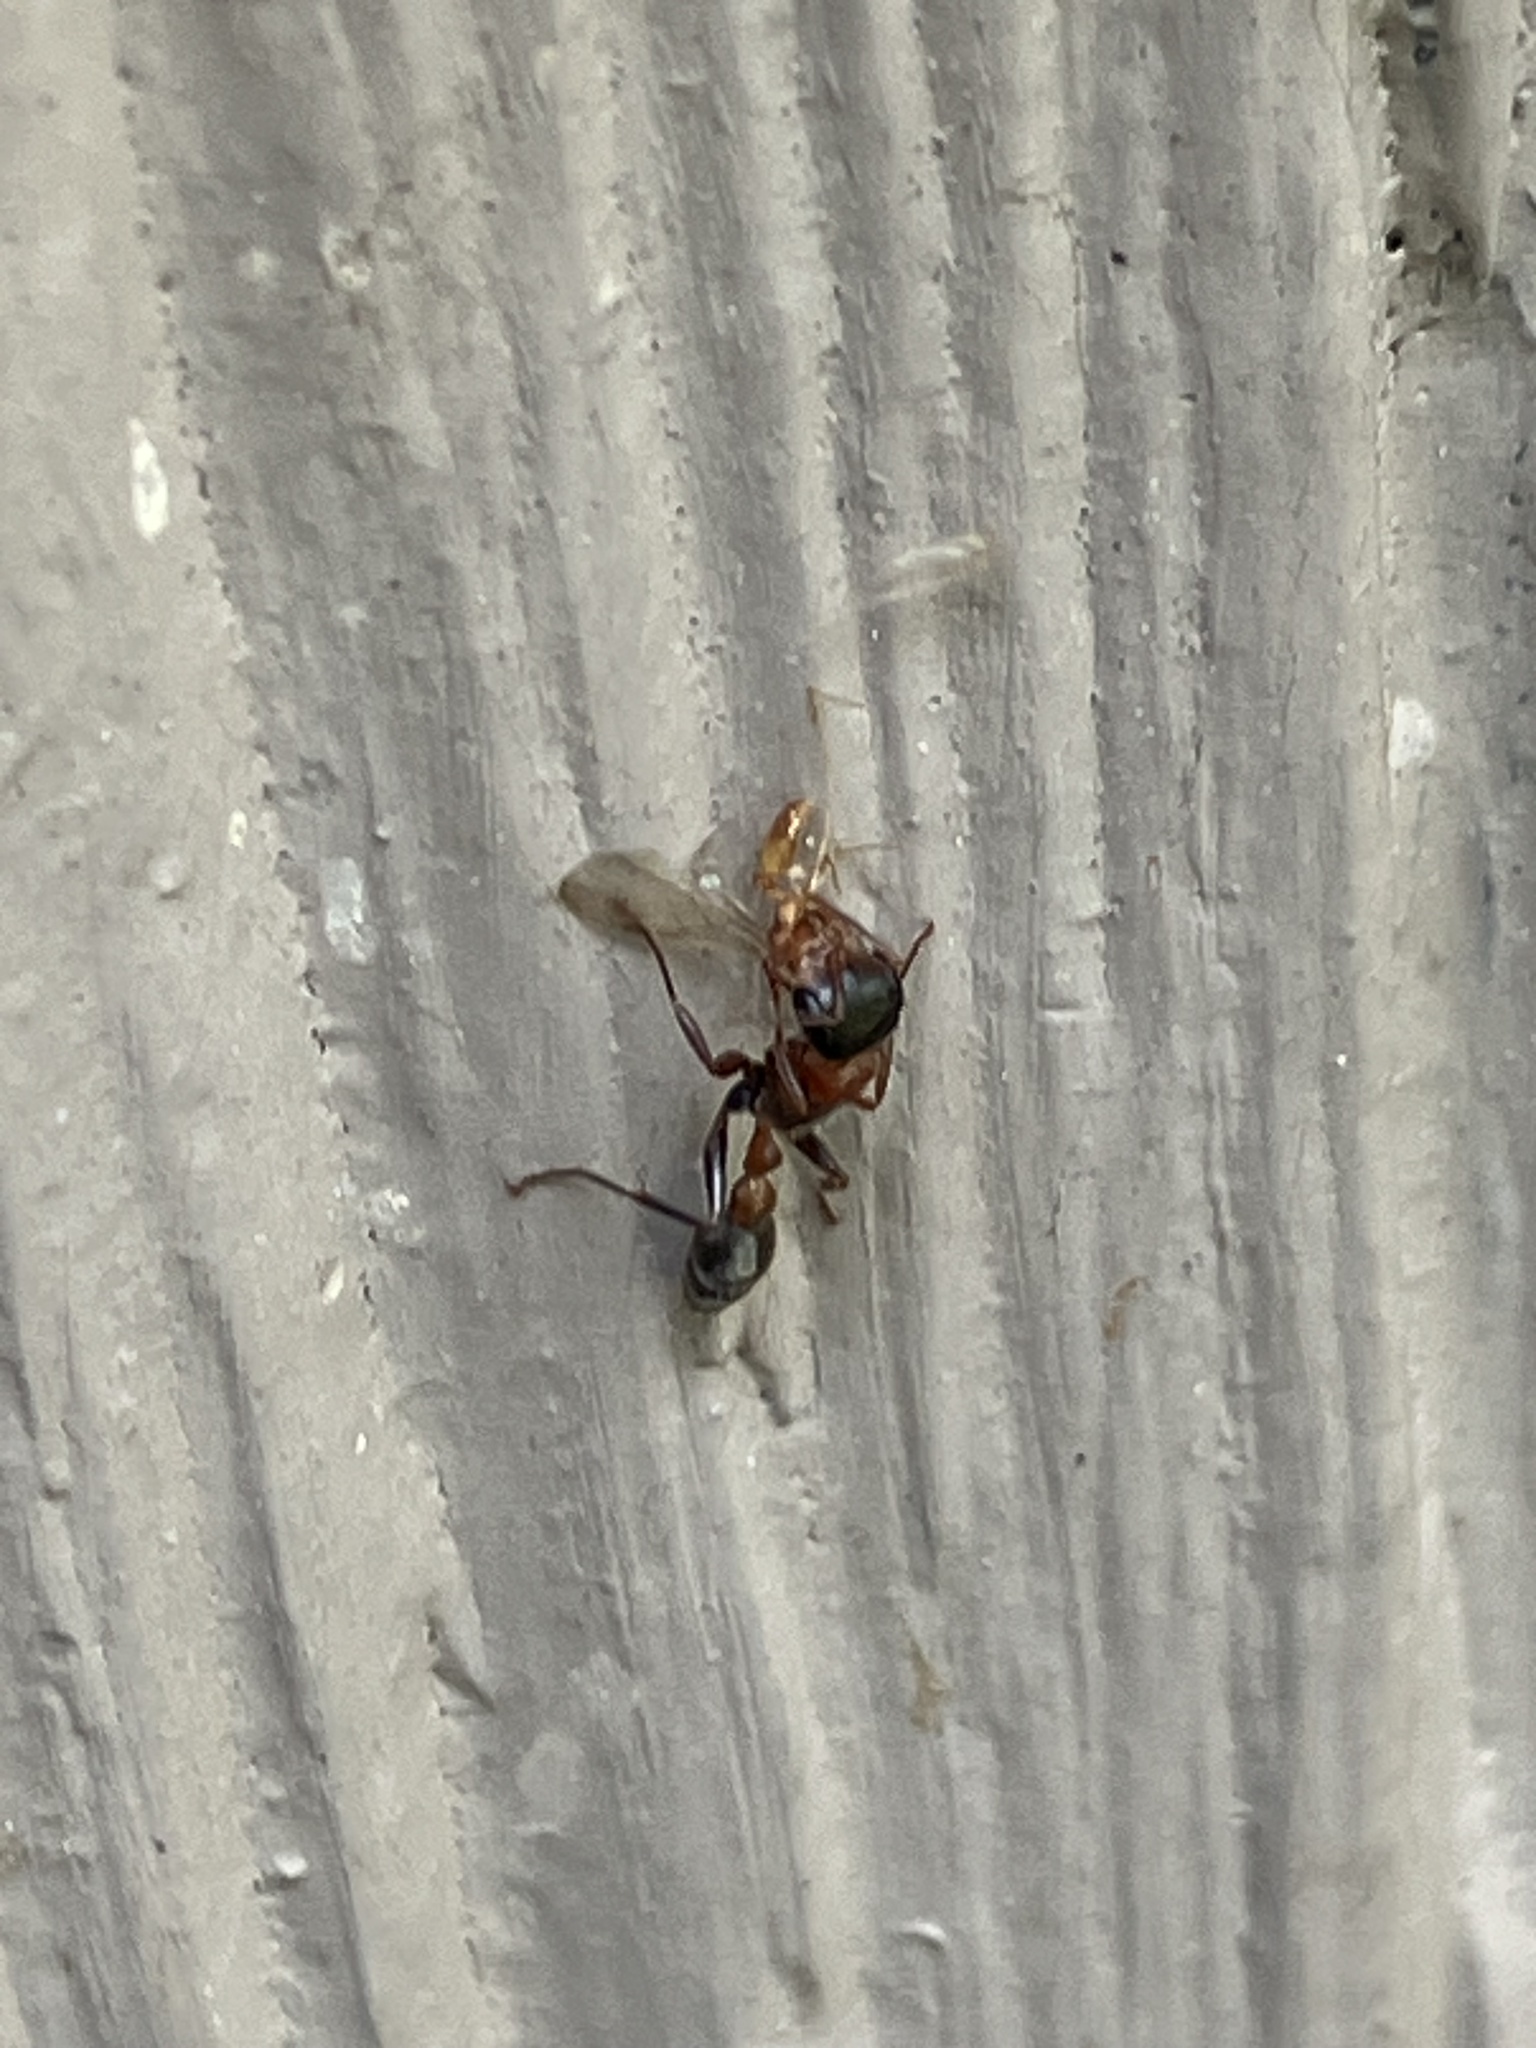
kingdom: Animalia
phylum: Arthropoda
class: Insecta
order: Hymenoptera
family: Formicidae
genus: Pseudomyrmex
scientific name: Pseudomyrmex gracilis
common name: Graceful twig ant
